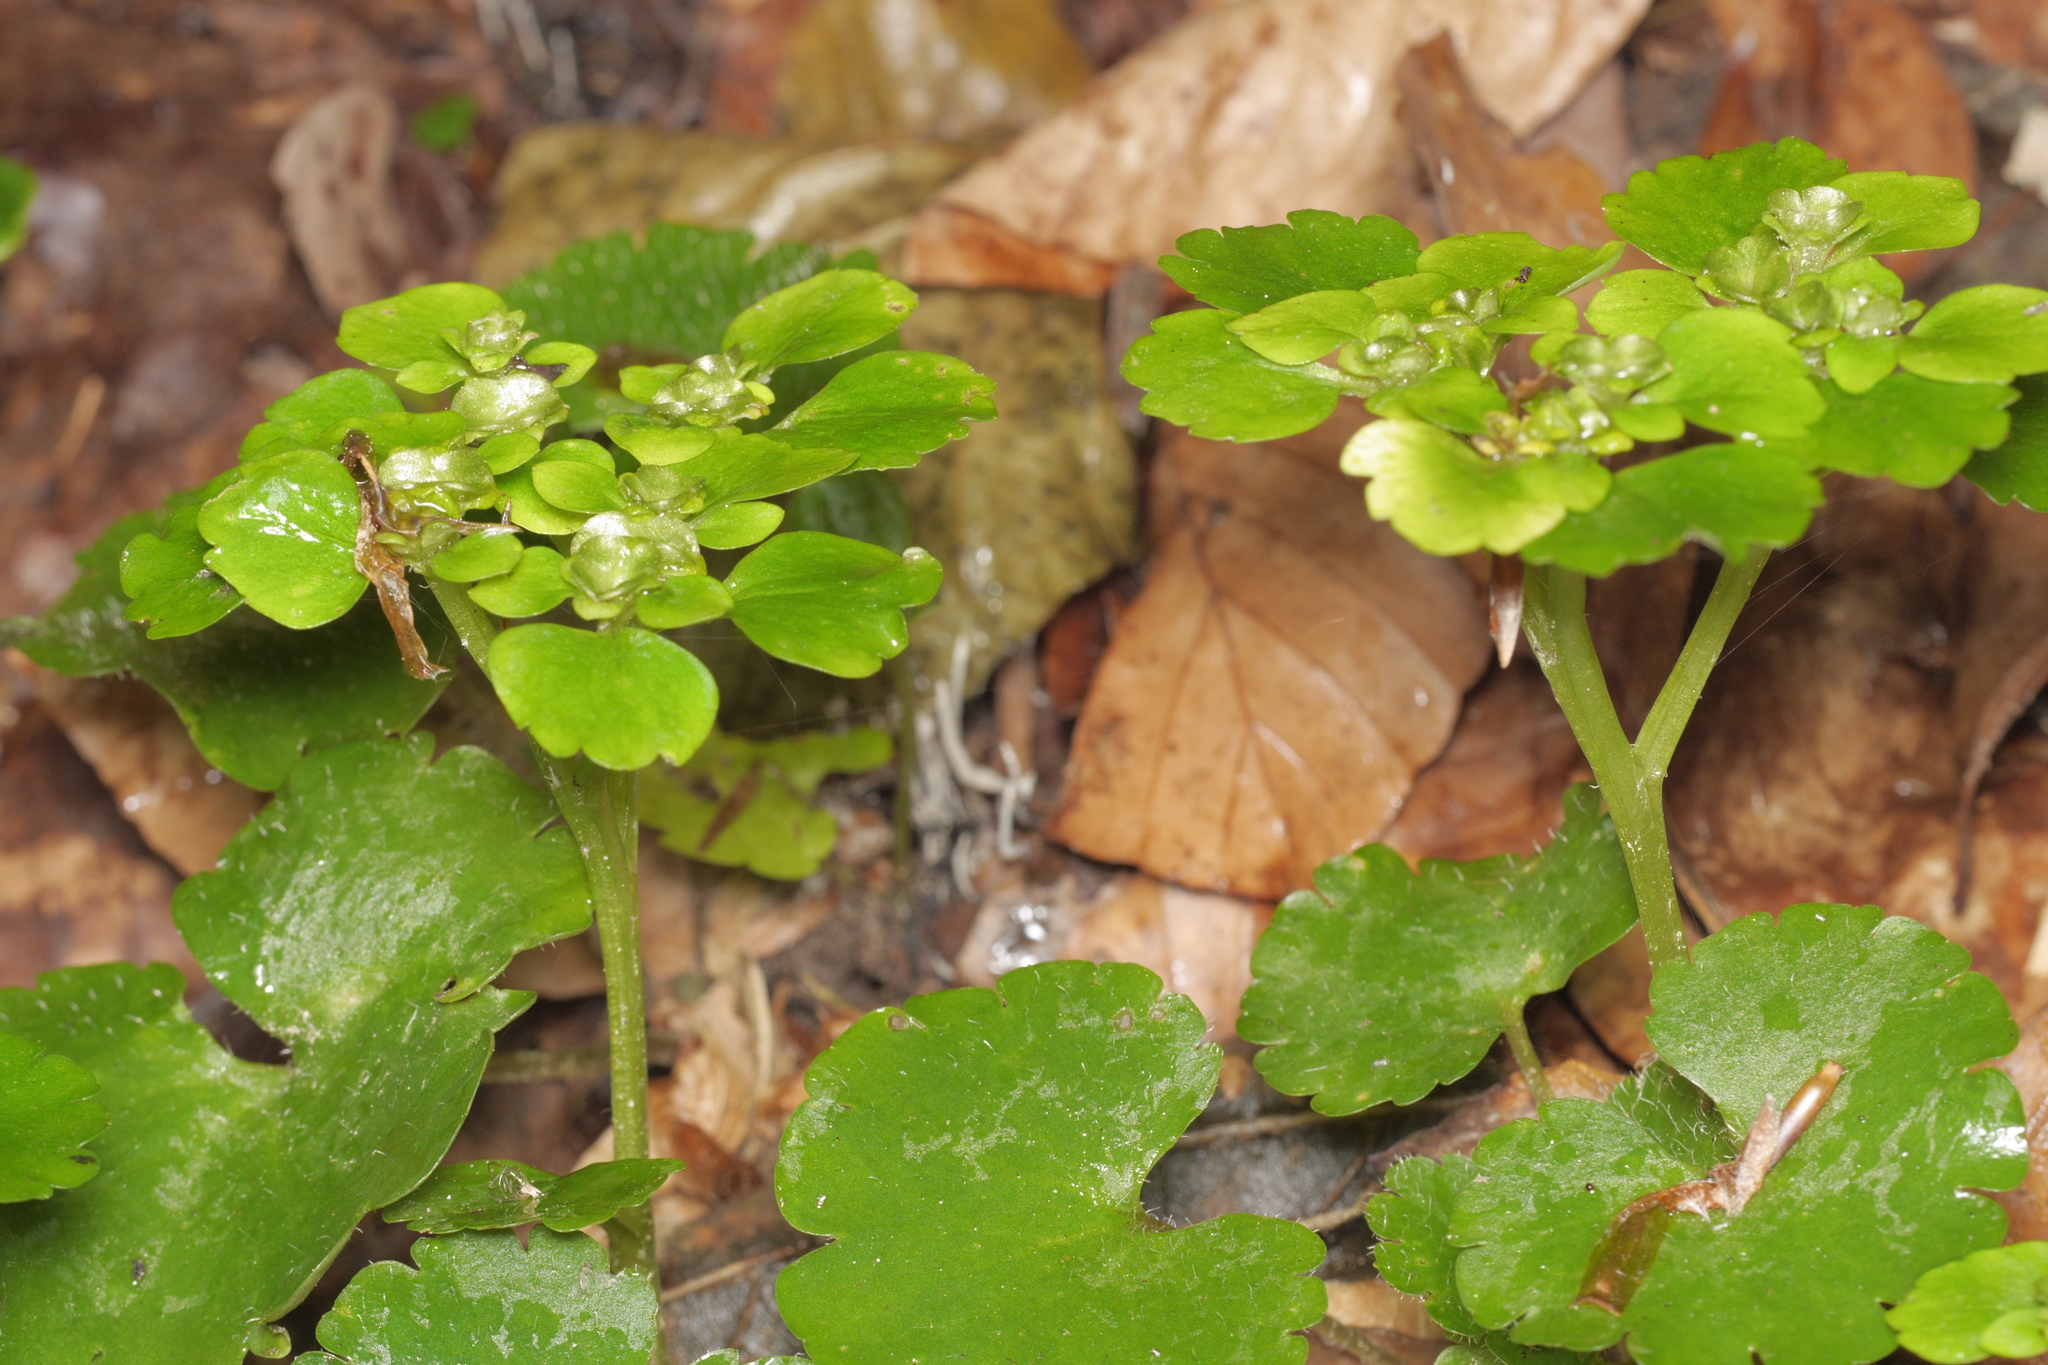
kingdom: Plantae
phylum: Tracheophyta
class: Magnoliopsida
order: Saxifragales
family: Saxifragaceae
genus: Chrysosplenium
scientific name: Chrysosplenium alternifolium
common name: Alternate-leaved golden-saxifrage
